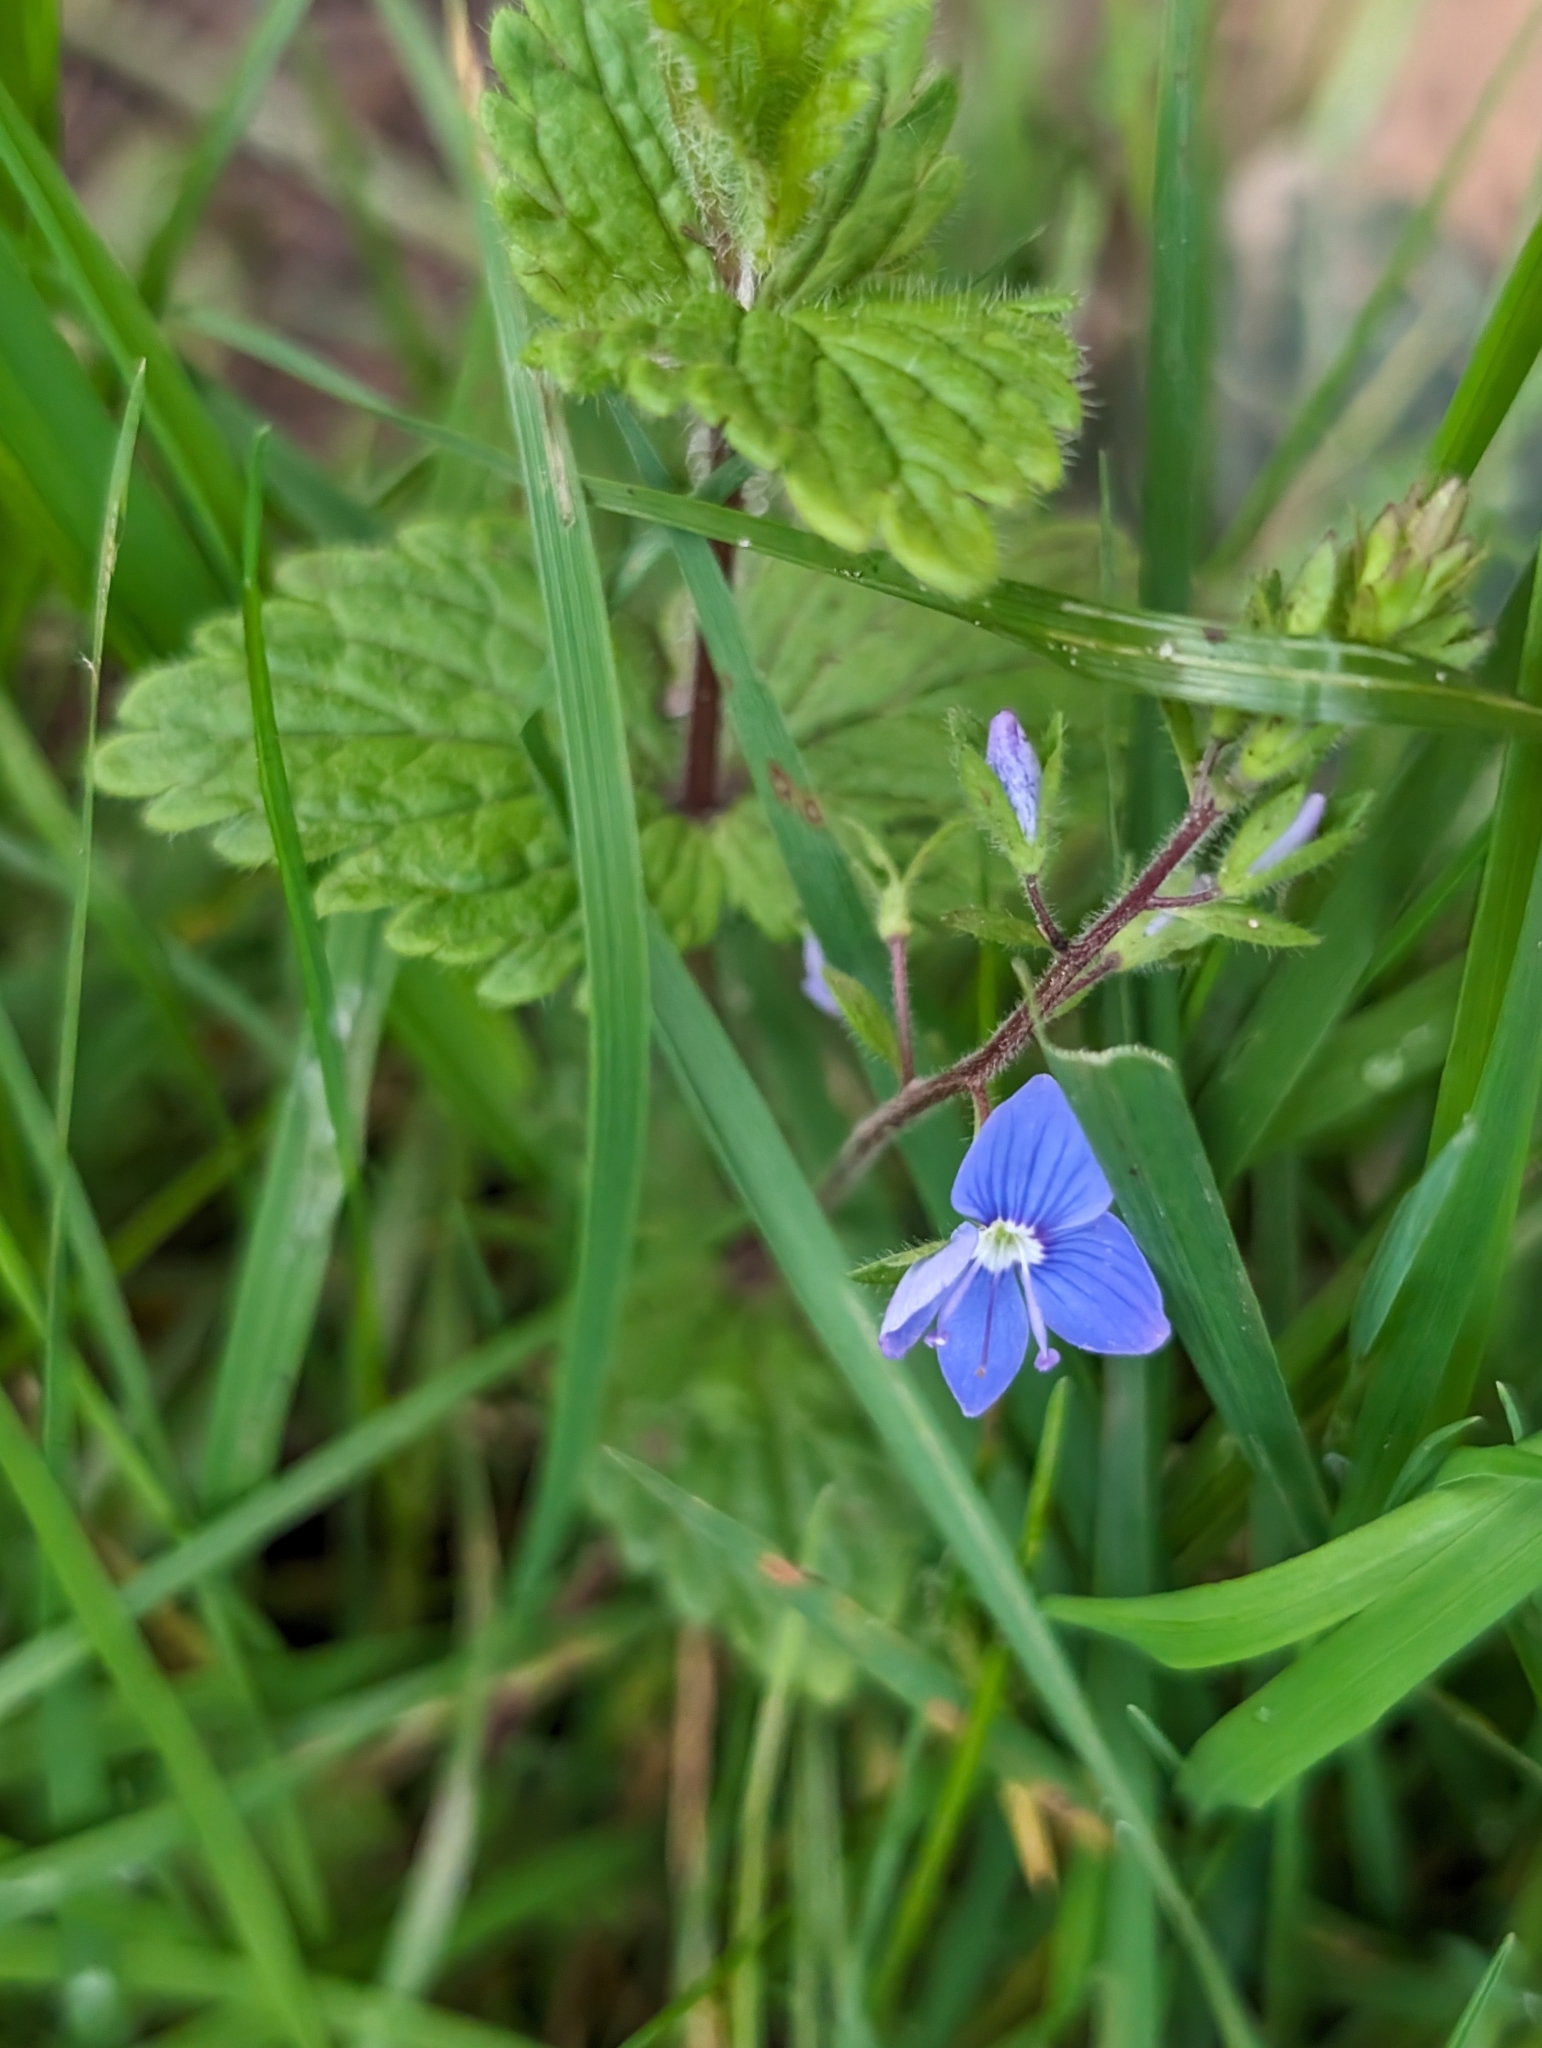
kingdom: Plantae
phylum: Tracheophyta
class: Magnoliopsida
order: Lamiales
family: Plantaginaceae
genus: Veronica
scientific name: Veronica chamaedrys
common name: Germander speedwell
